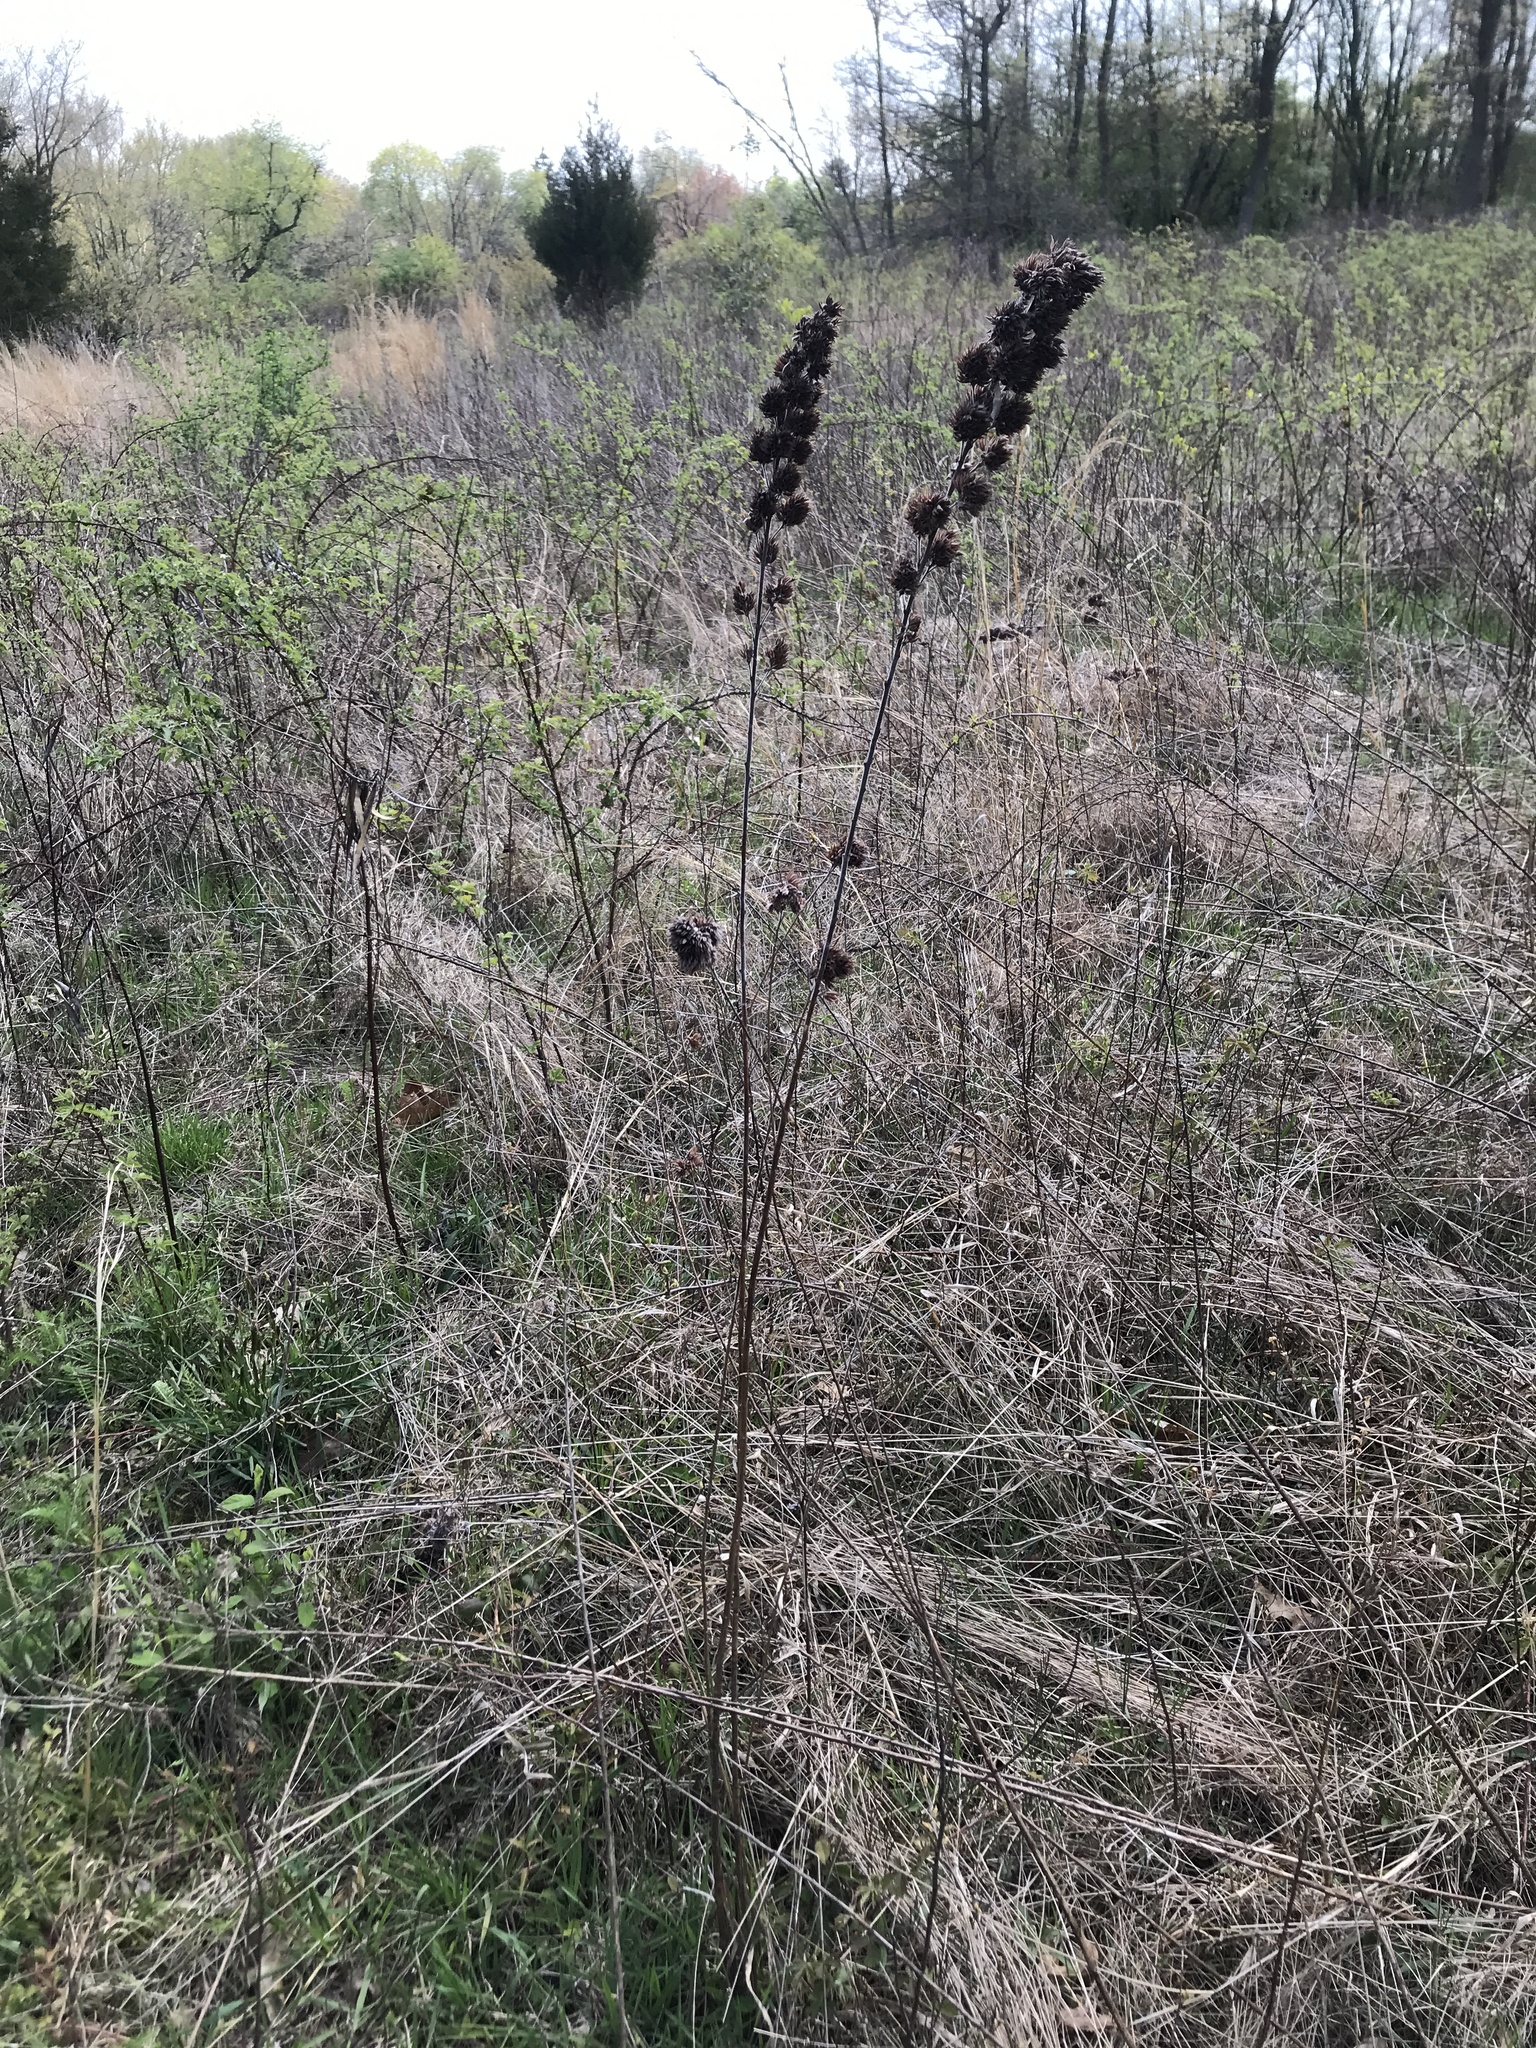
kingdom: Plantae
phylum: Tracheophyta
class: Magnoliopsida
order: Fabales
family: Fabaceae
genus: Lespedeza
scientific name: Lespedeza capitata
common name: Dusty clover
